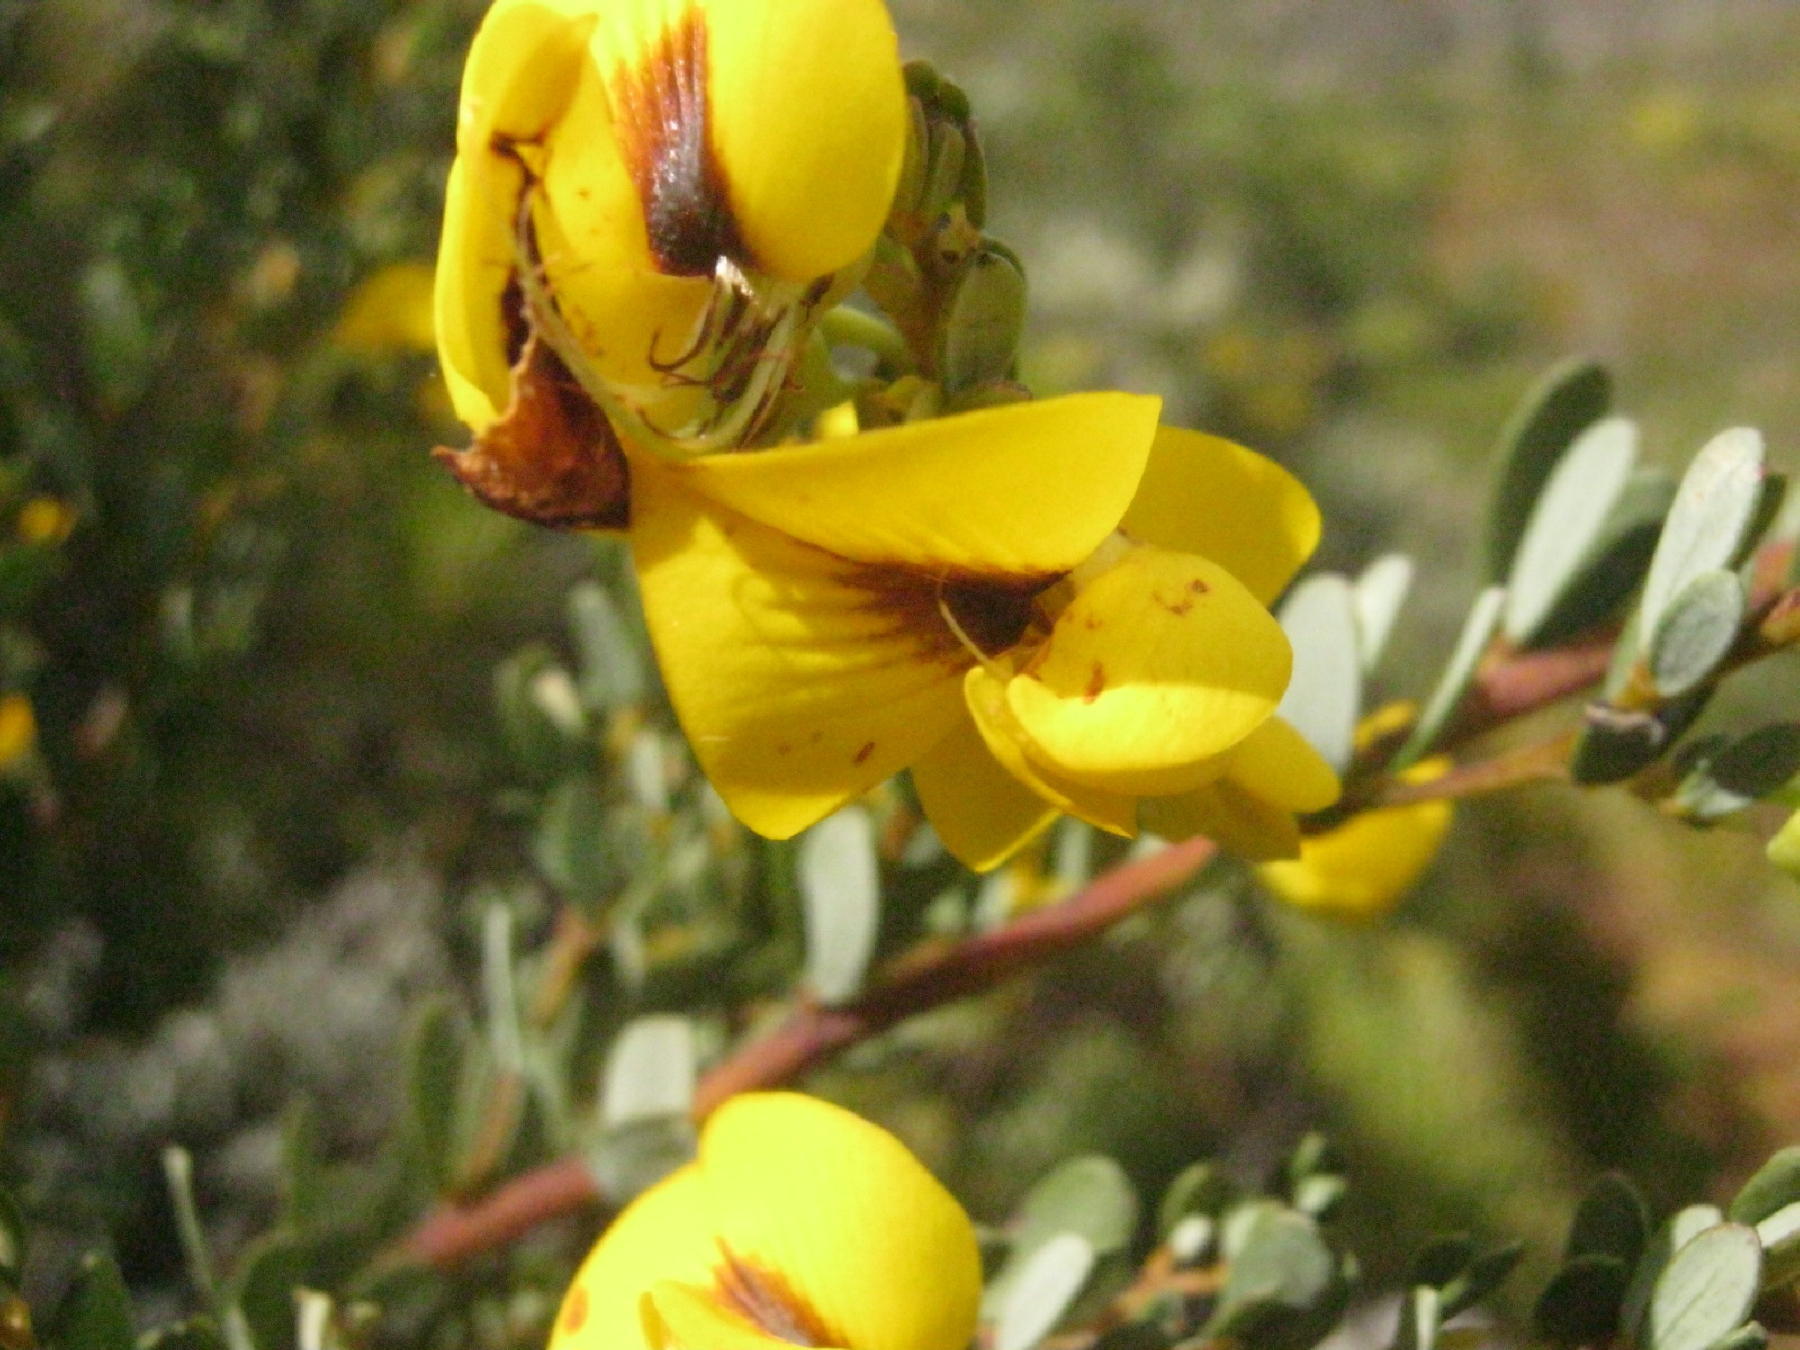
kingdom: Plantae
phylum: Tracheophyta
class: Magnoliopsida
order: Fabales
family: Fabaceae
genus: Cyclopia
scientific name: Cyclopia subternata
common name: Honeybush tea
